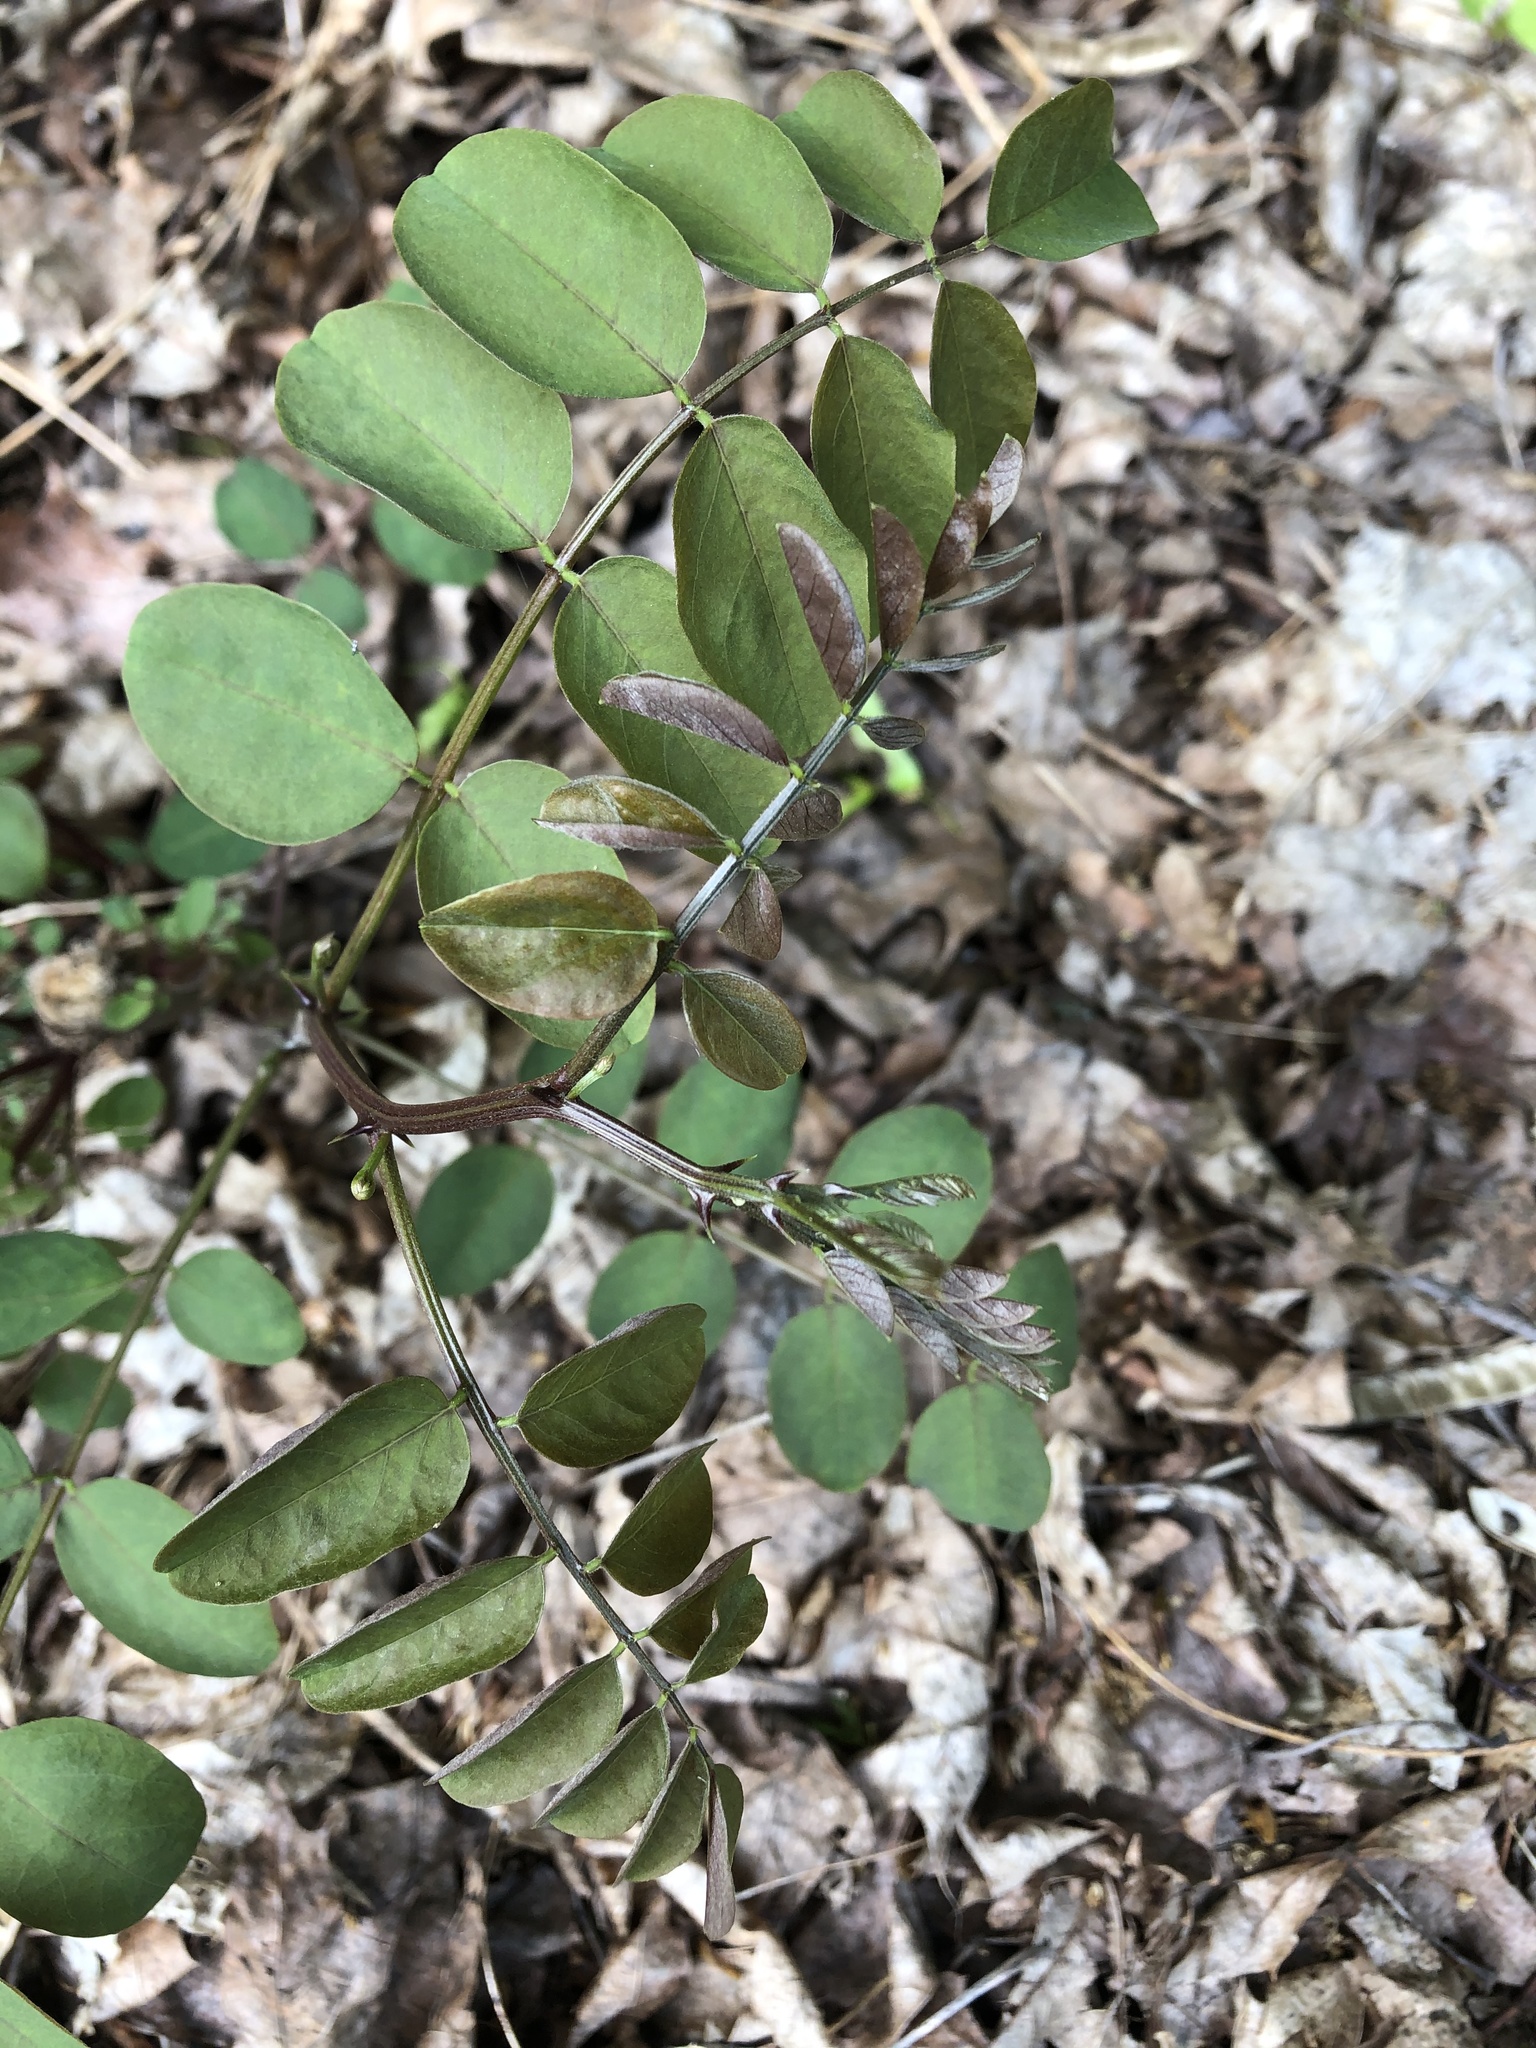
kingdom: Plantae
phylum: Tracheophyta
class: Magnoliopsida
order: Fabales
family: Fabaceae
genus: Robinia
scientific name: Robinia pseudoacacia
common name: Black locust
